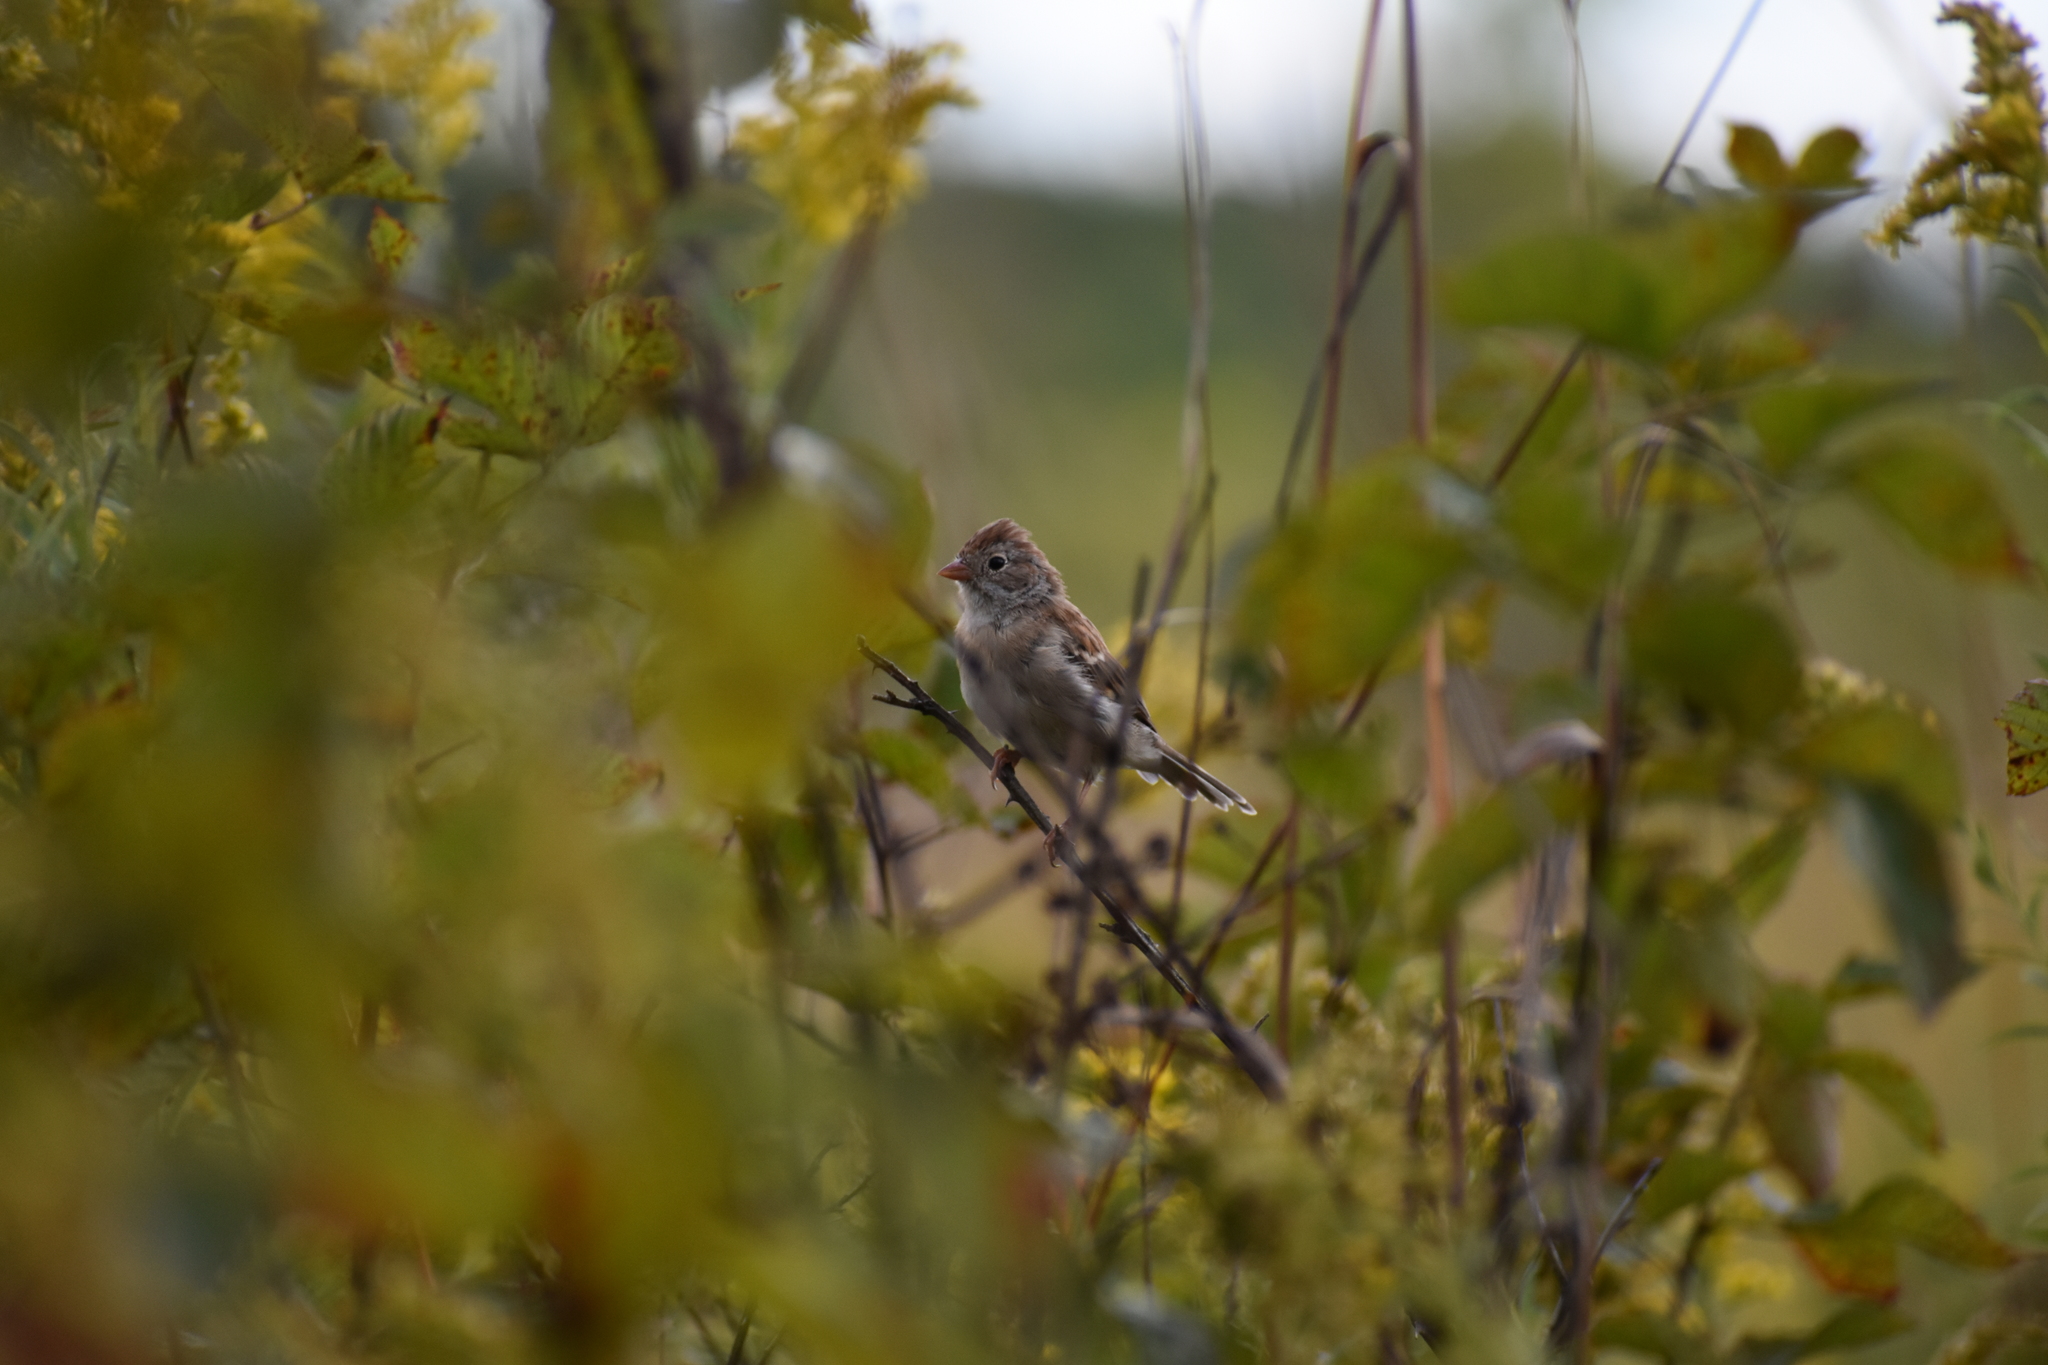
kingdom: Animalia
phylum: Chordata
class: Aves
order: Passeriformes
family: Passerellidae
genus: Spizella
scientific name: Spizella pusilla
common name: Field sparrow
